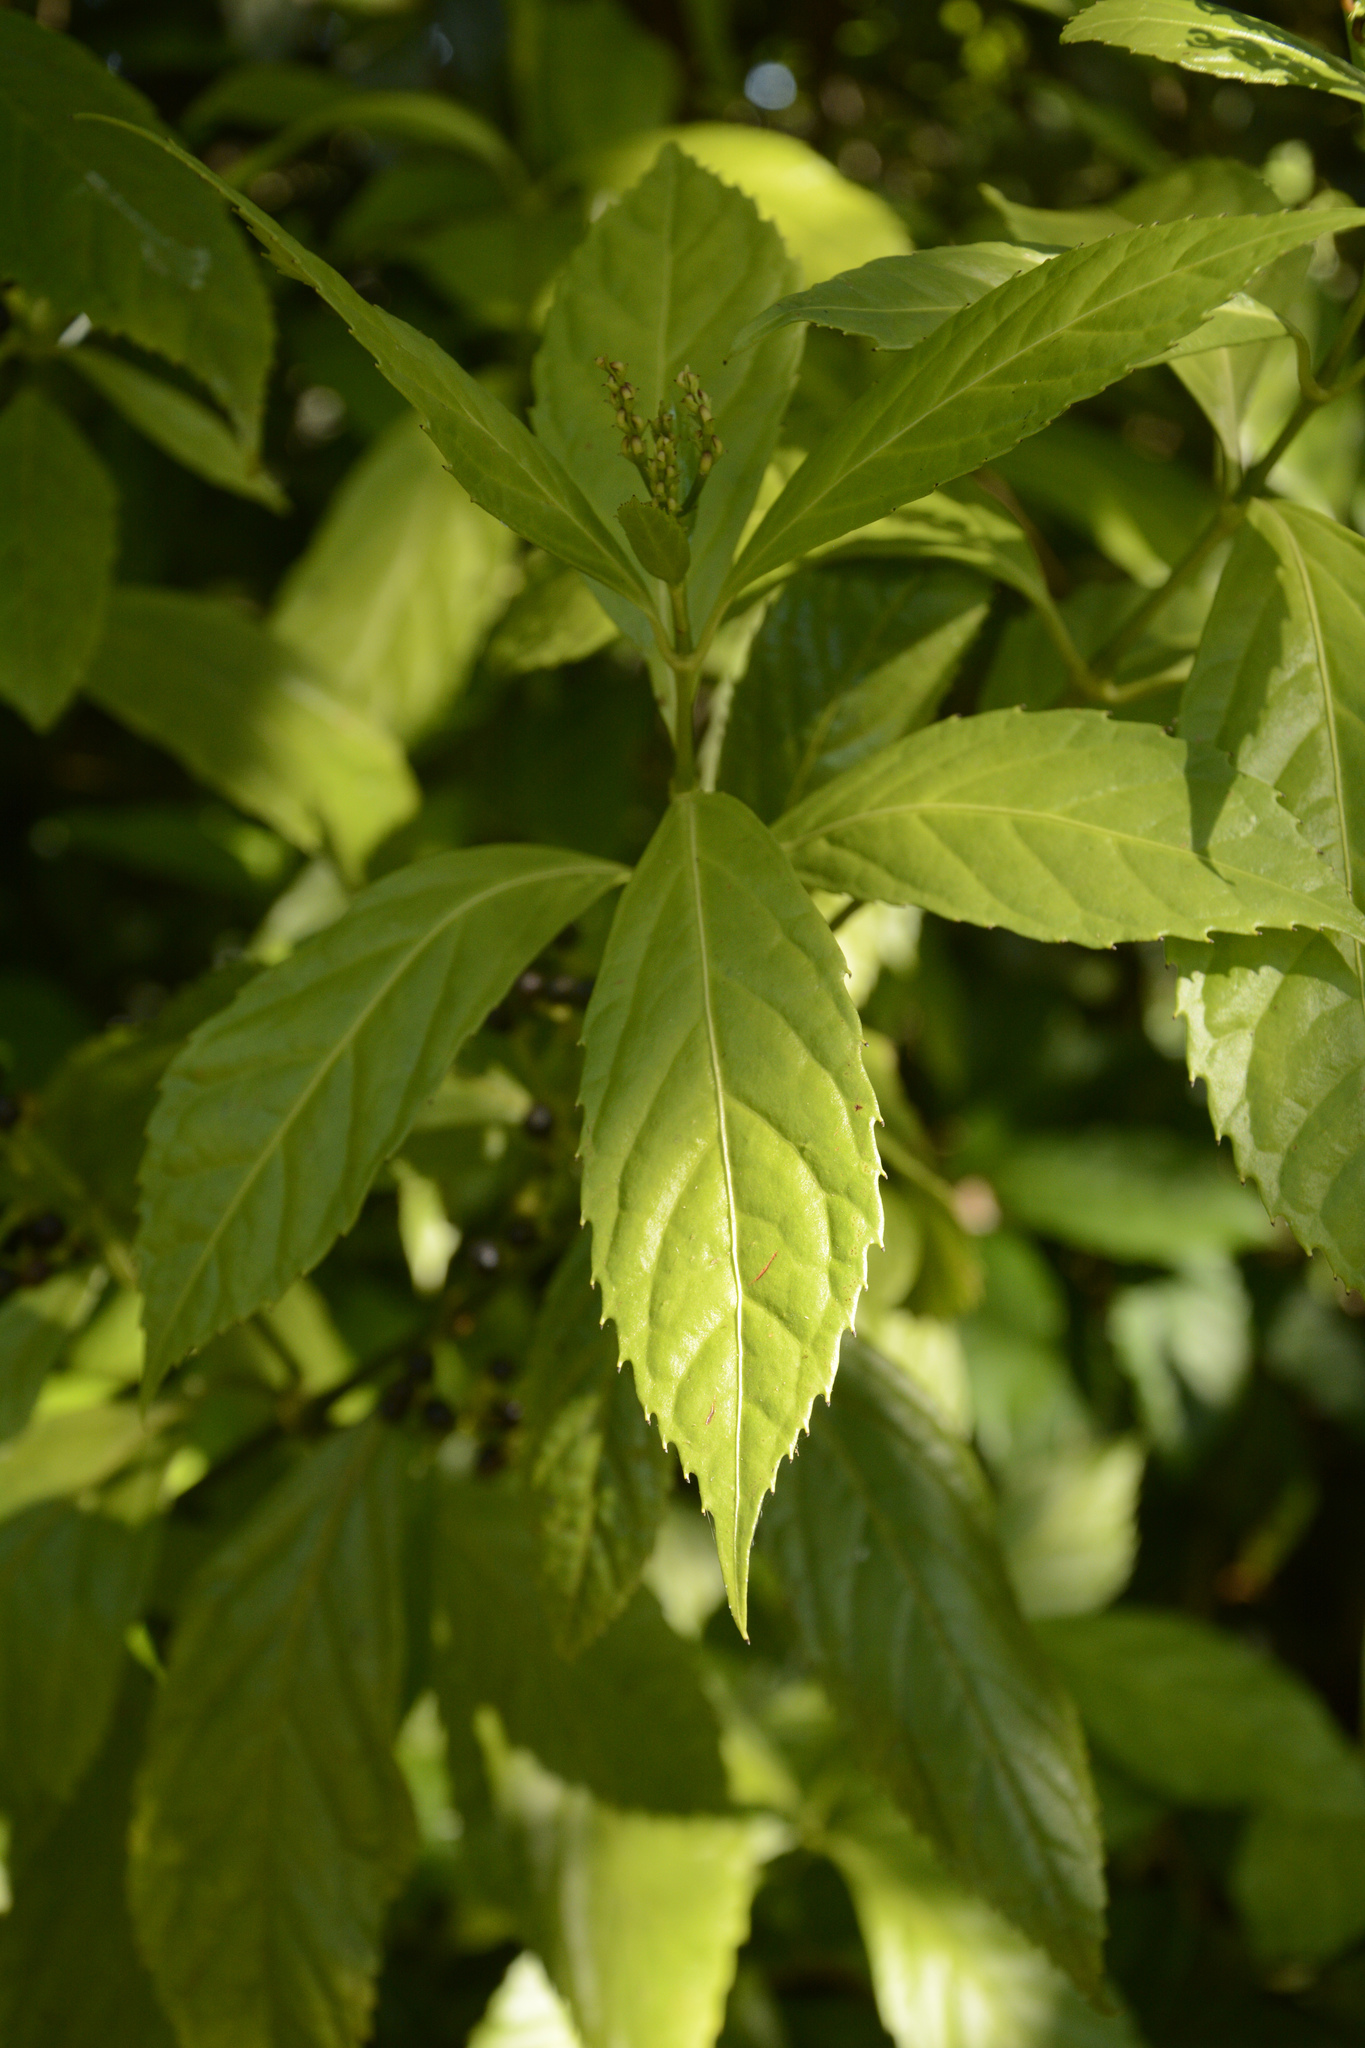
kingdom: Plantae
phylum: Tracheophyta
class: Magnoliopsida
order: Chloranthales
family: Chloranthaceae
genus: Sarcandra
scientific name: Sarcandra glabra
